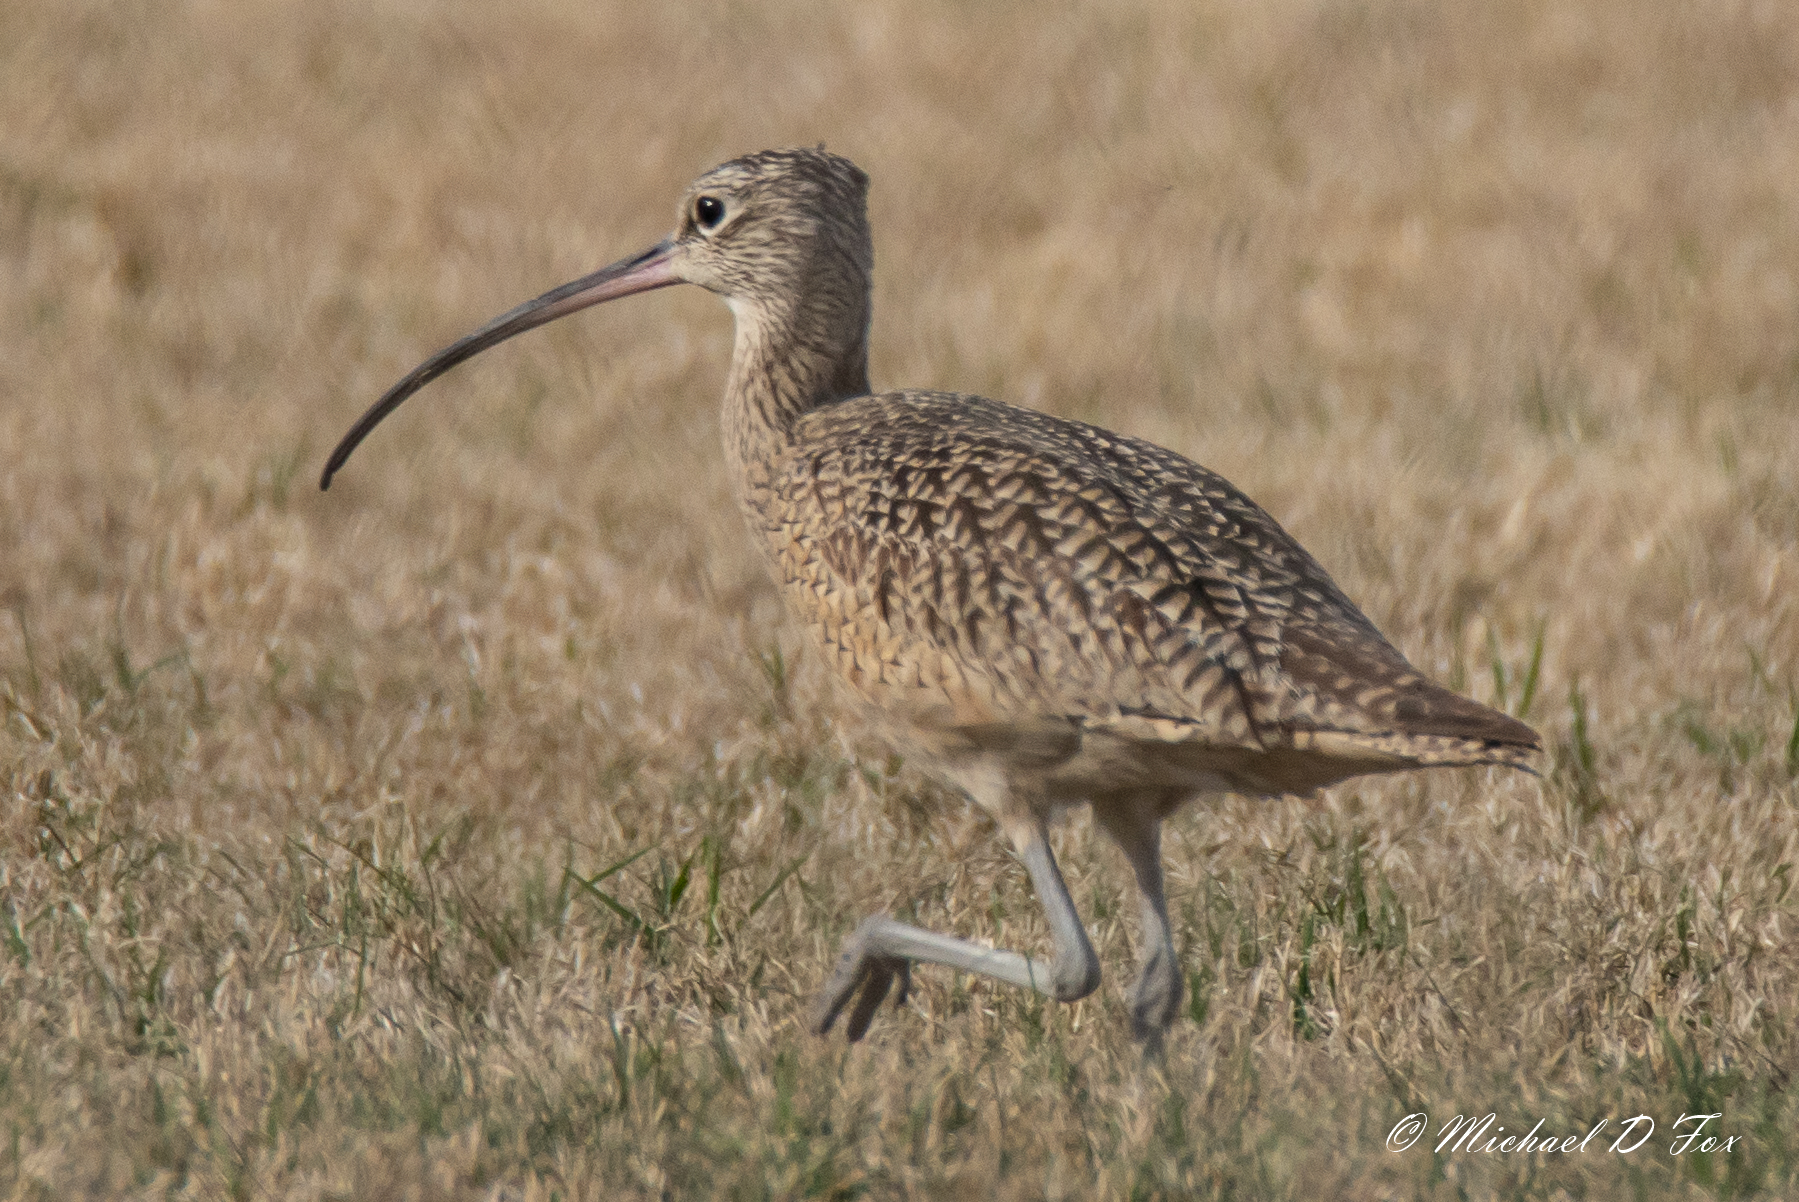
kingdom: Animalia
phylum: Chordata
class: Aves
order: Charadriiformes
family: Scolopacidae
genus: Numenius
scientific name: Numenius americanus
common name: Long-billed curlew
